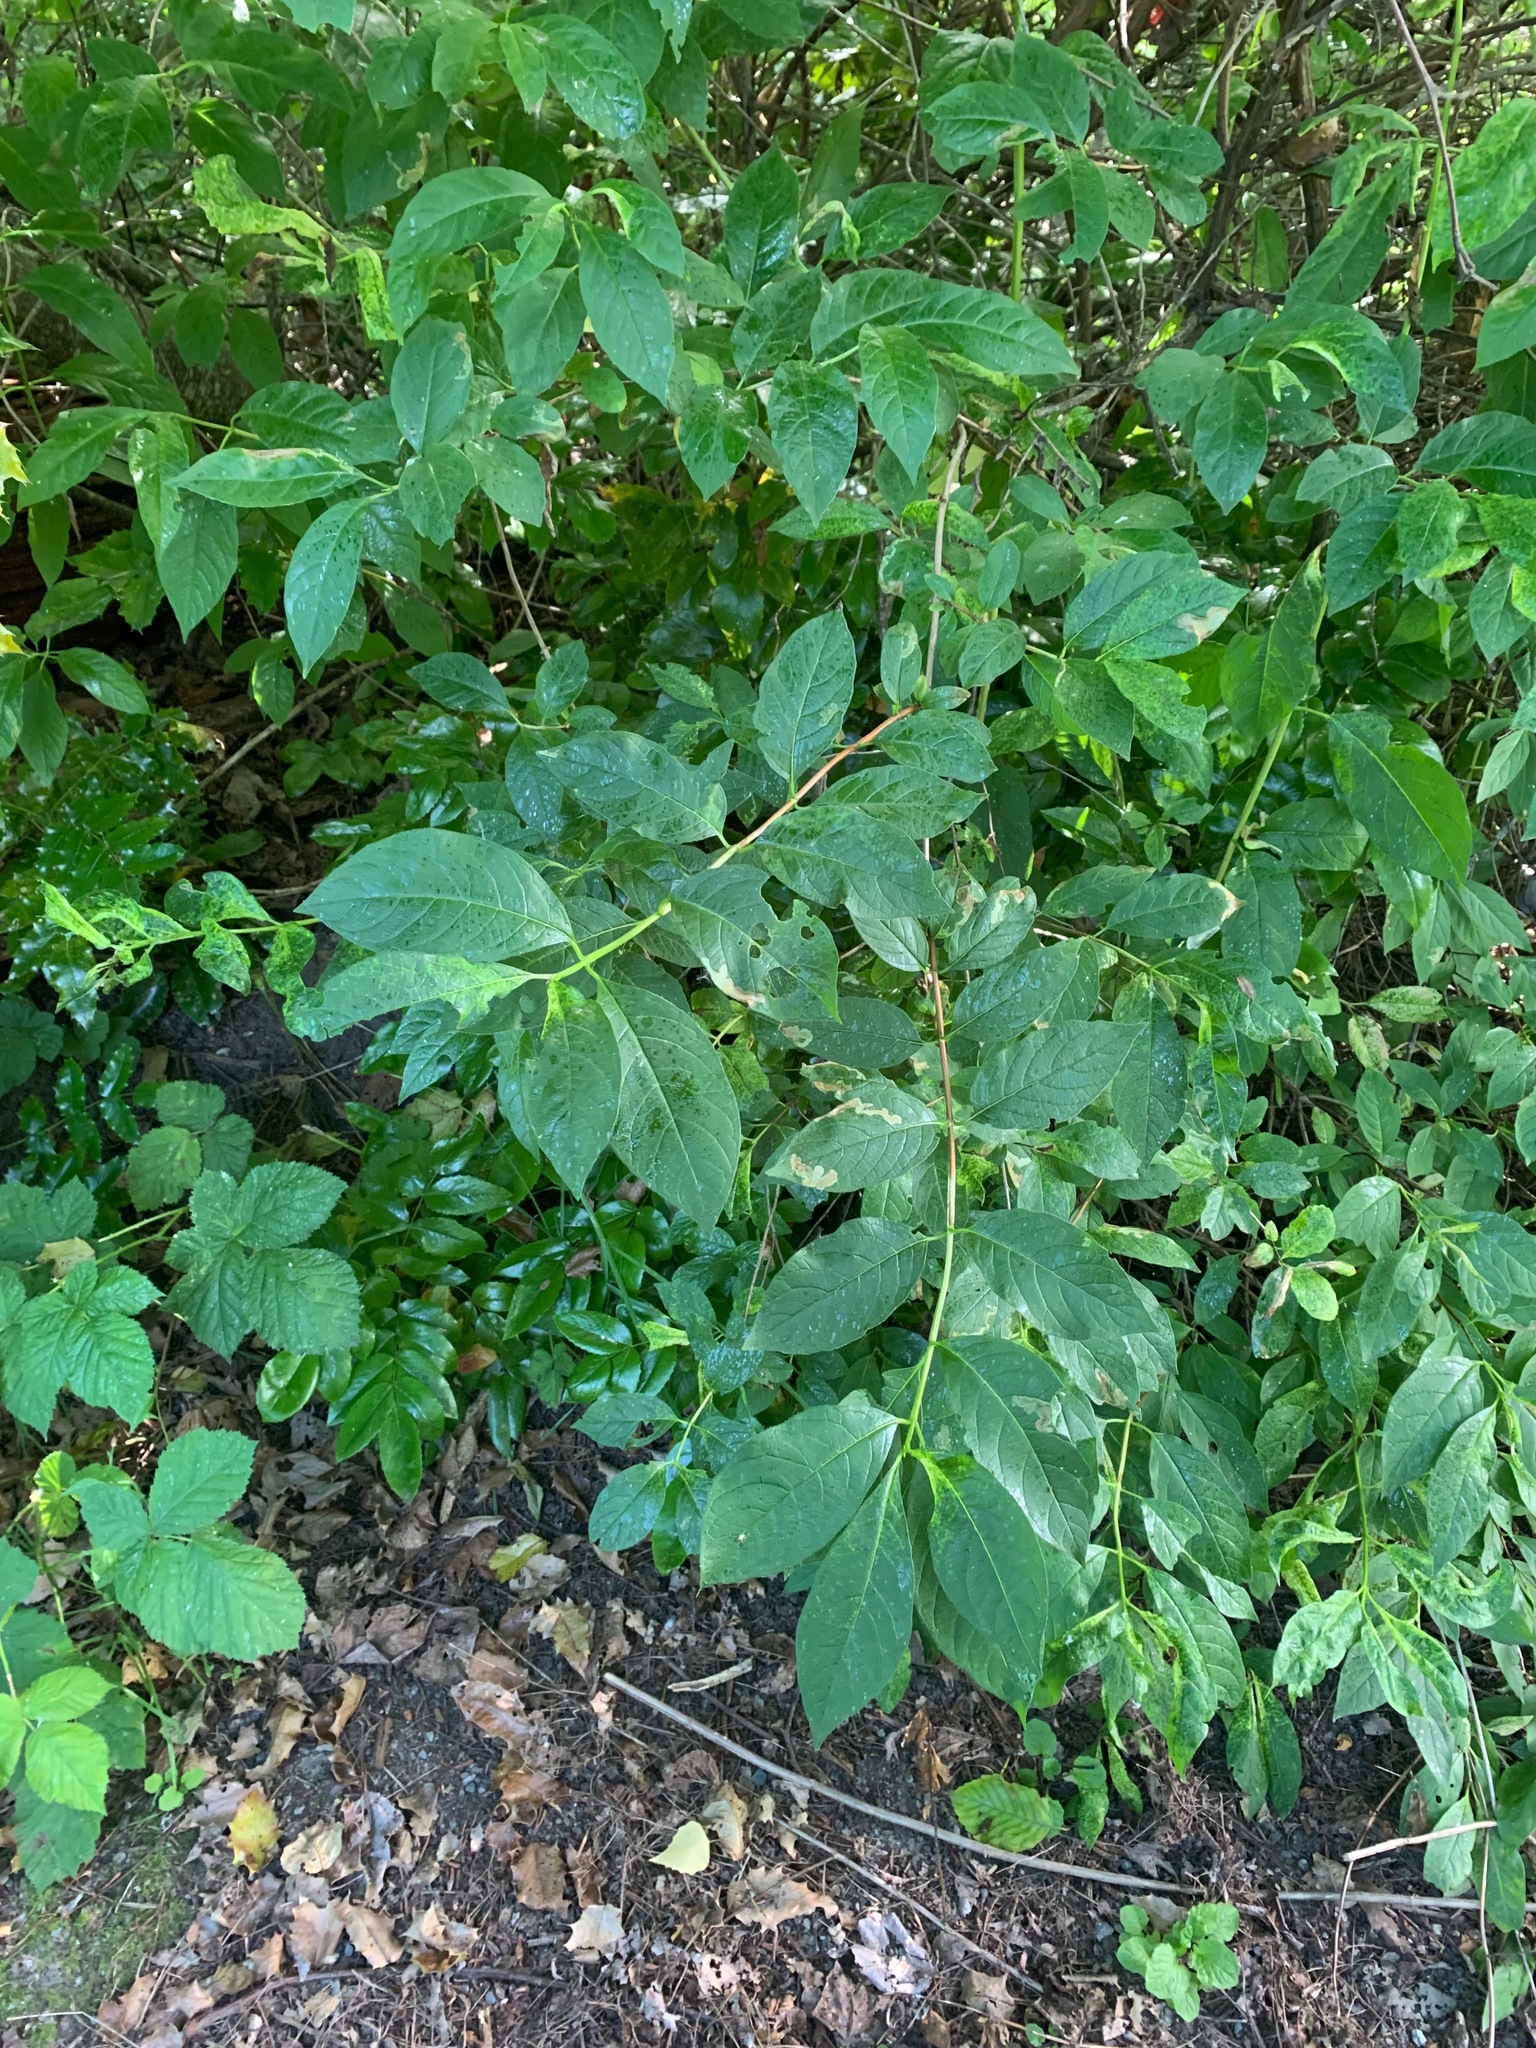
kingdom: Plantae
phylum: Tracheophyta
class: Magnoliopsida
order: Dipsacales
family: Caprifoliaceae
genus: Lonicera
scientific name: Lonicera involucrata
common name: Californian honeysuckle
